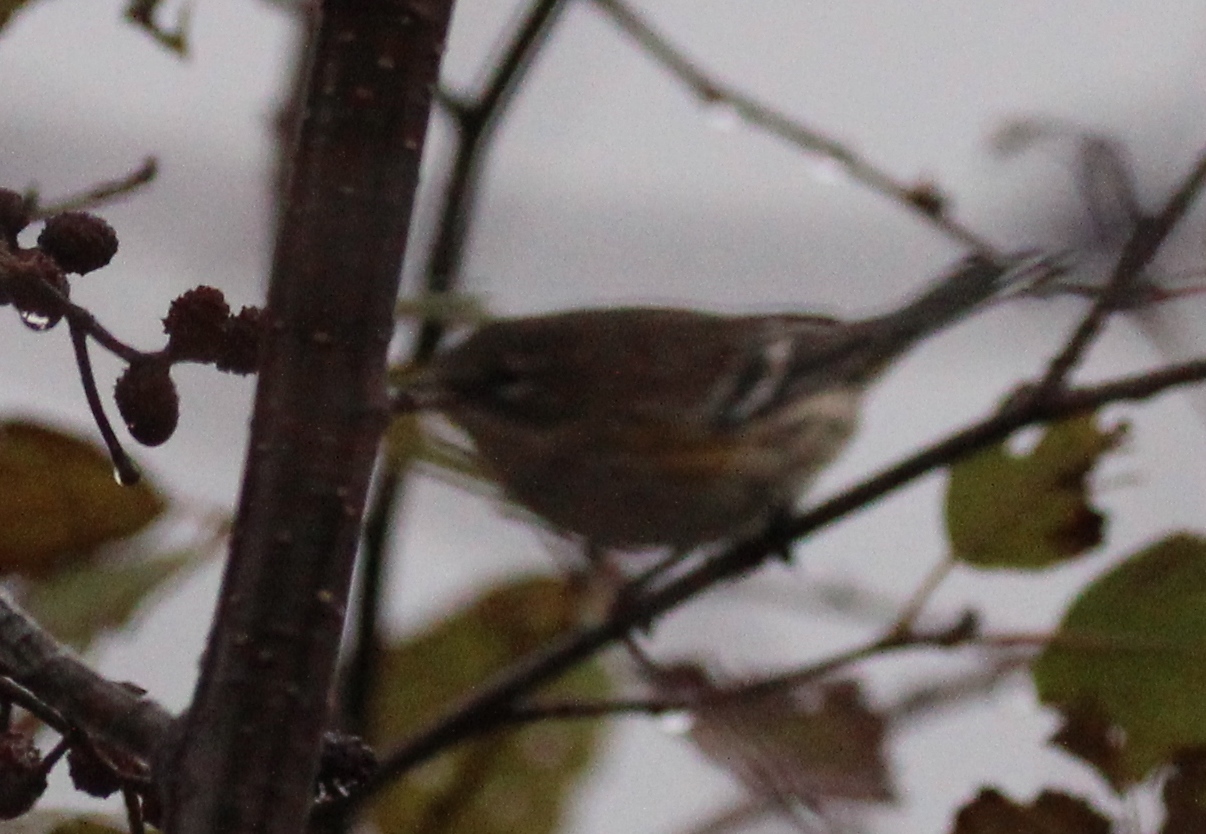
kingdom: Animalia
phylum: Chordata
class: Aves
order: Passeriformes
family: Parulidae
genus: Setophaga
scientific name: Setophaga coronata
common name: Myrtle warbler
